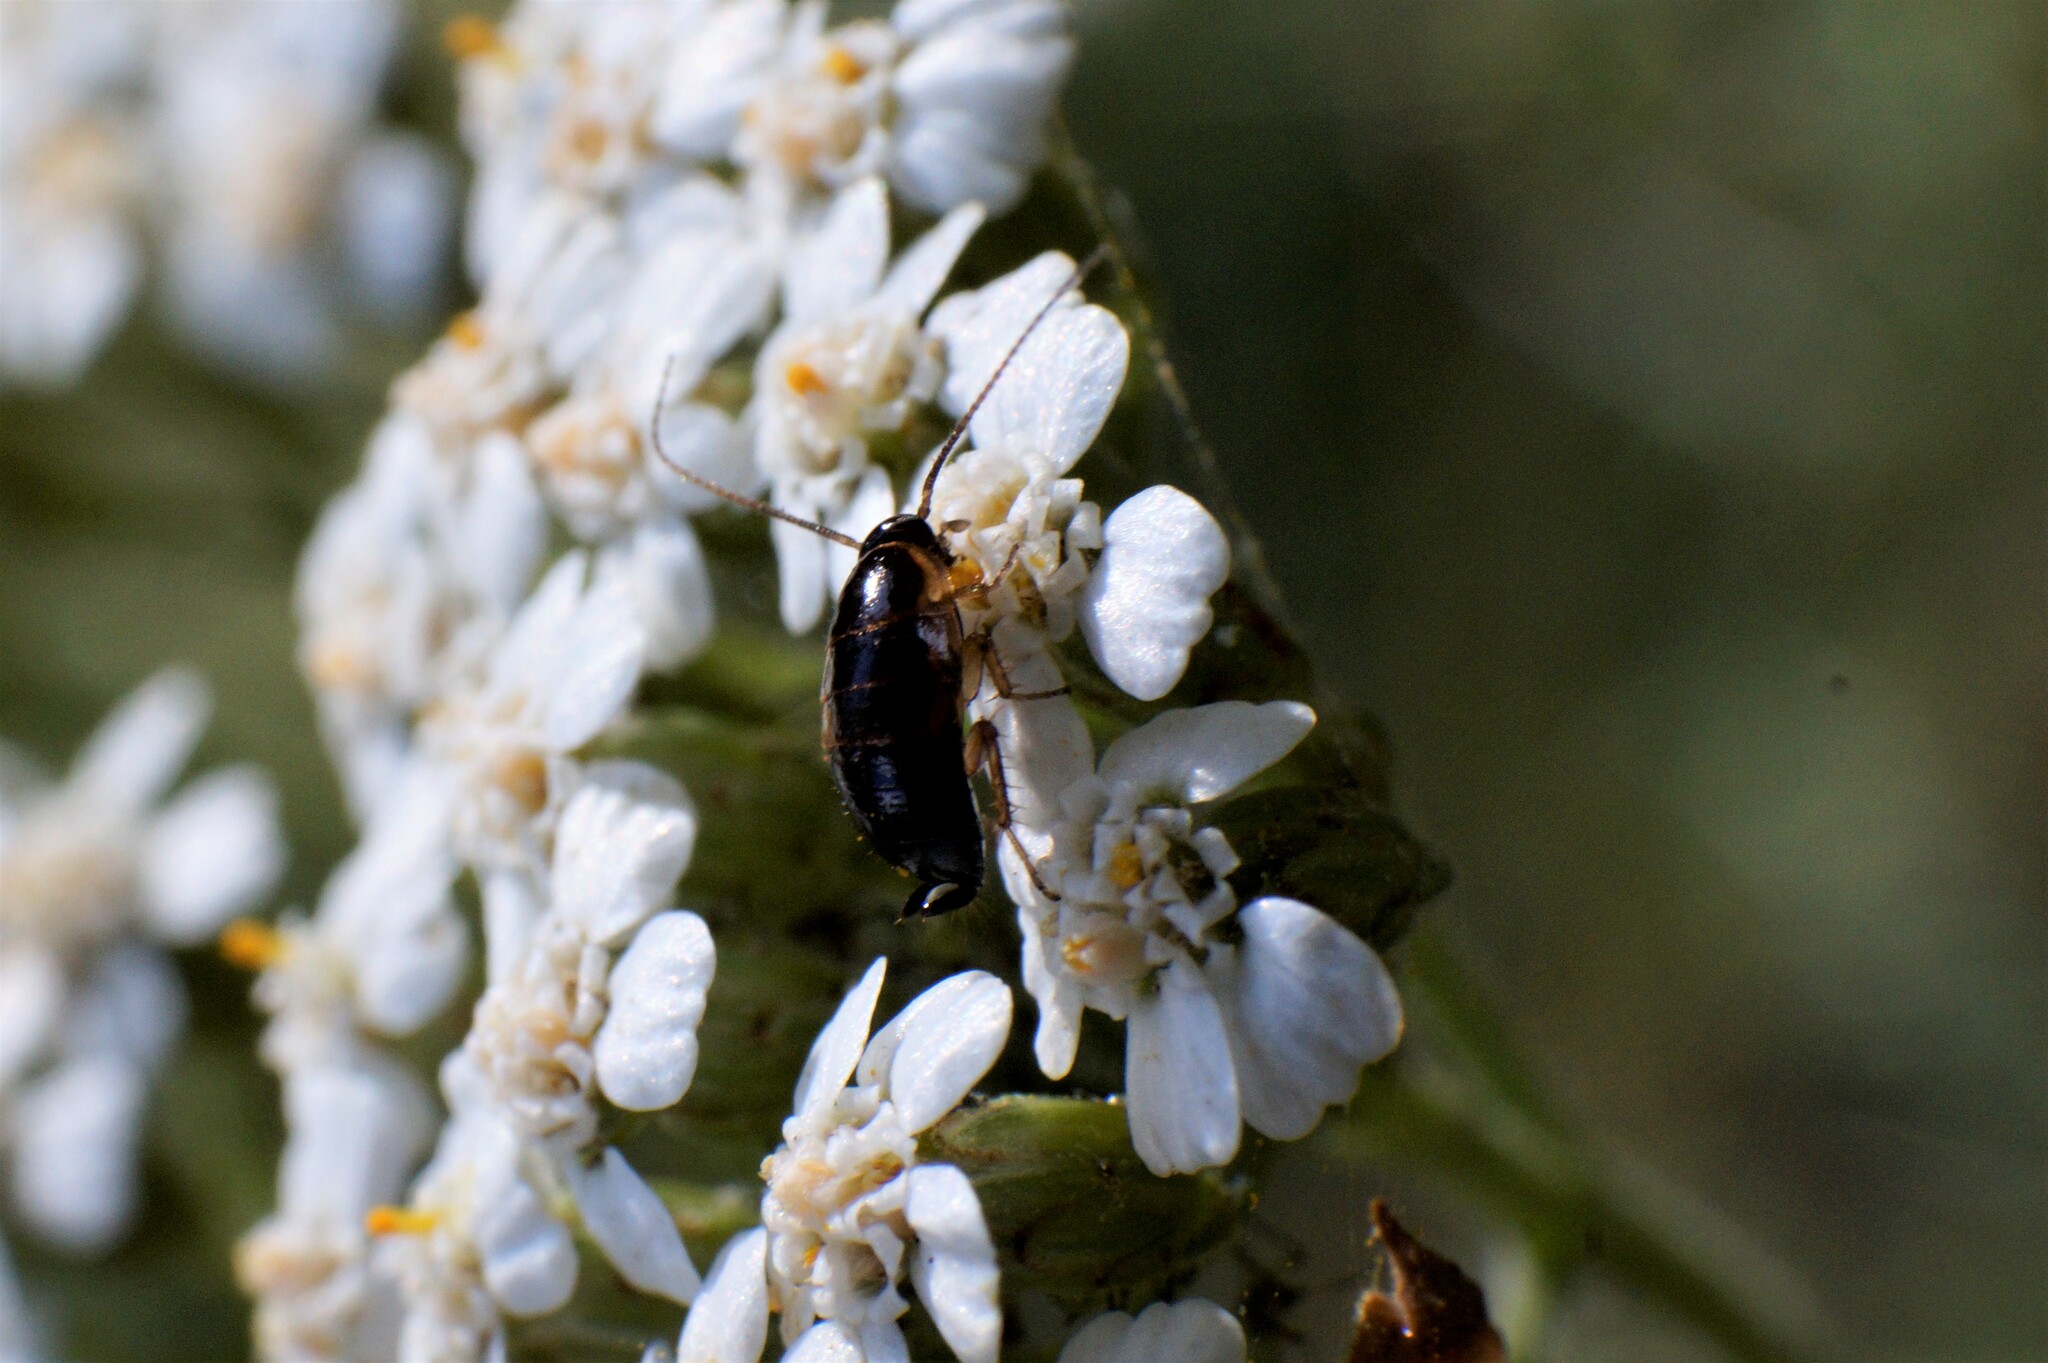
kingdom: Animalia
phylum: Arthropoda
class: Insecta
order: Blattodea
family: Ectobiidae
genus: Ectobius
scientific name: Ectobius sylvestris
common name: Forest cockroach
